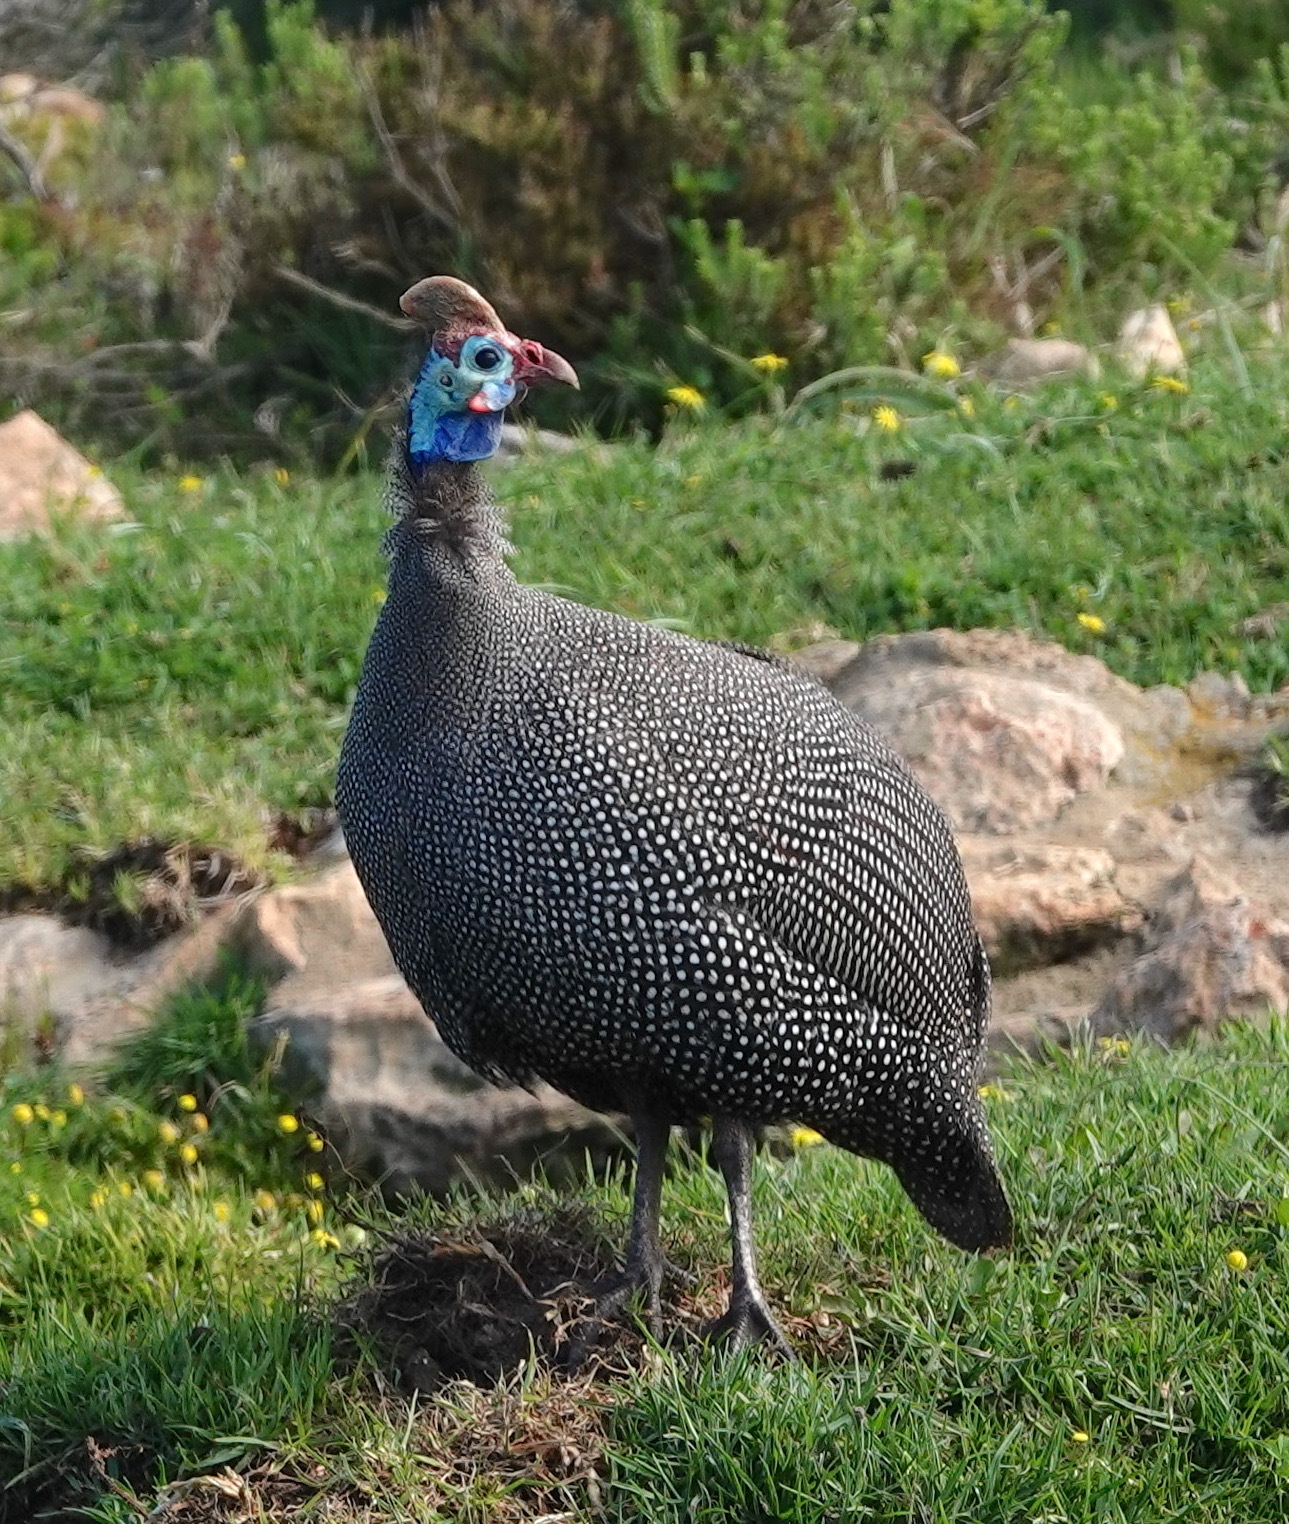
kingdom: Animalia
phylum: Chordata
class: Aves
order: Galliformes
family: Numididae
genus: Numida
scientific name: Numida meleagris
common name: Helmeted guineafowl
